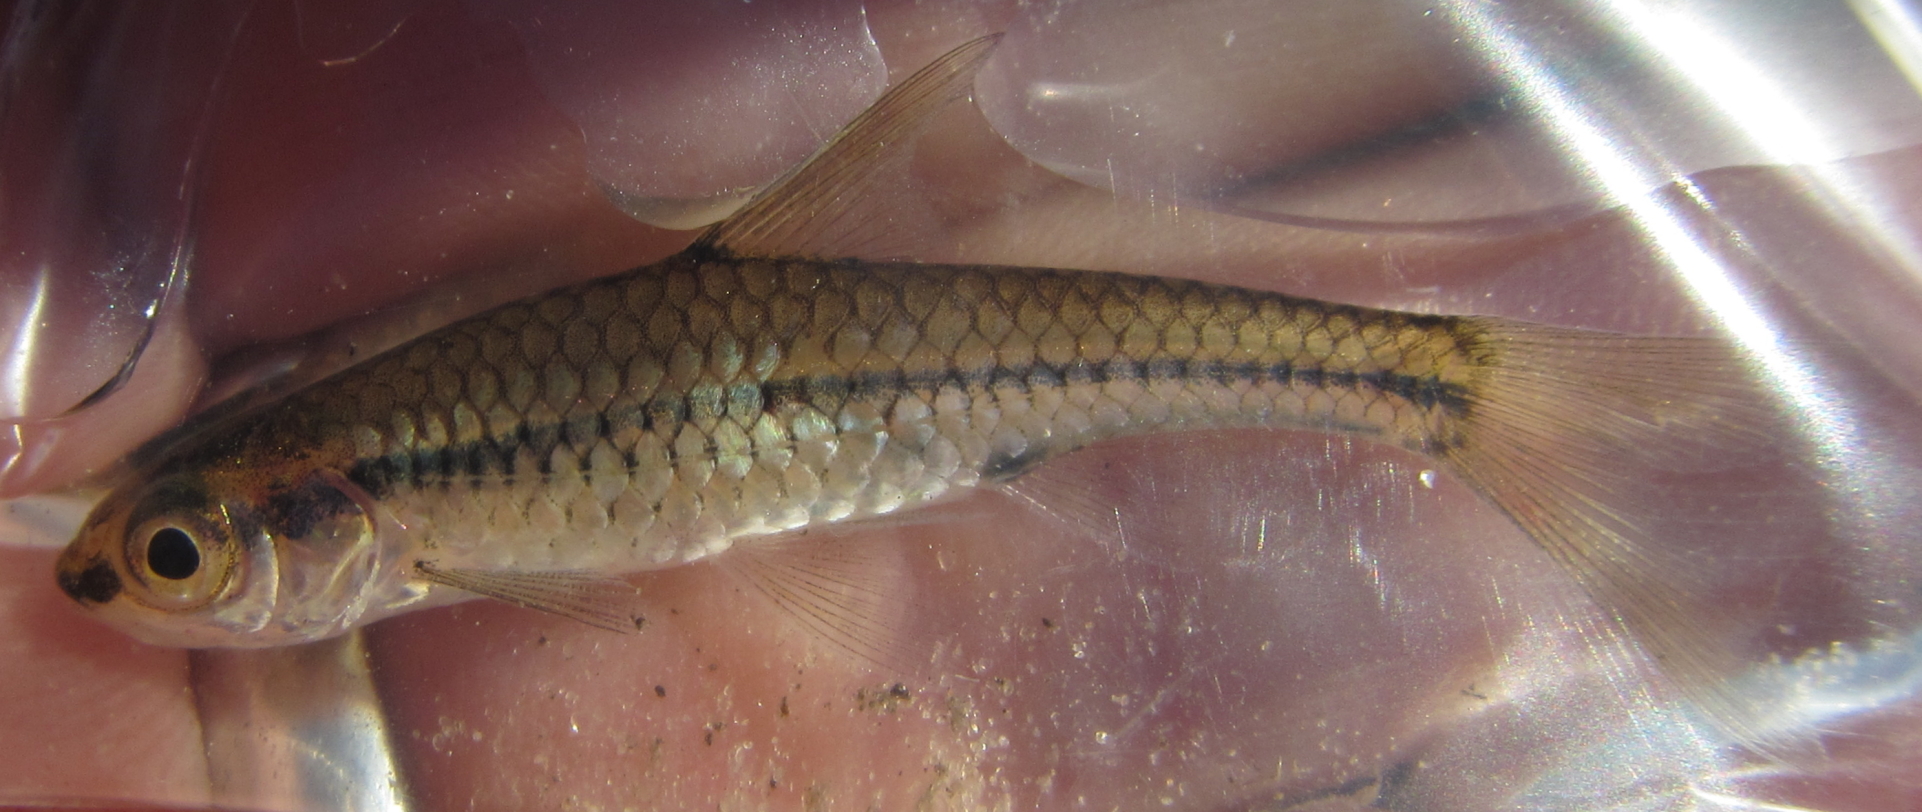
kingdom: Animalia
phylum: Chordata
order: Cypriniformes
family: Cyprinidae
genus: Enteromius
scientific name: Enteromius barnardi
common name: Blackback barb
